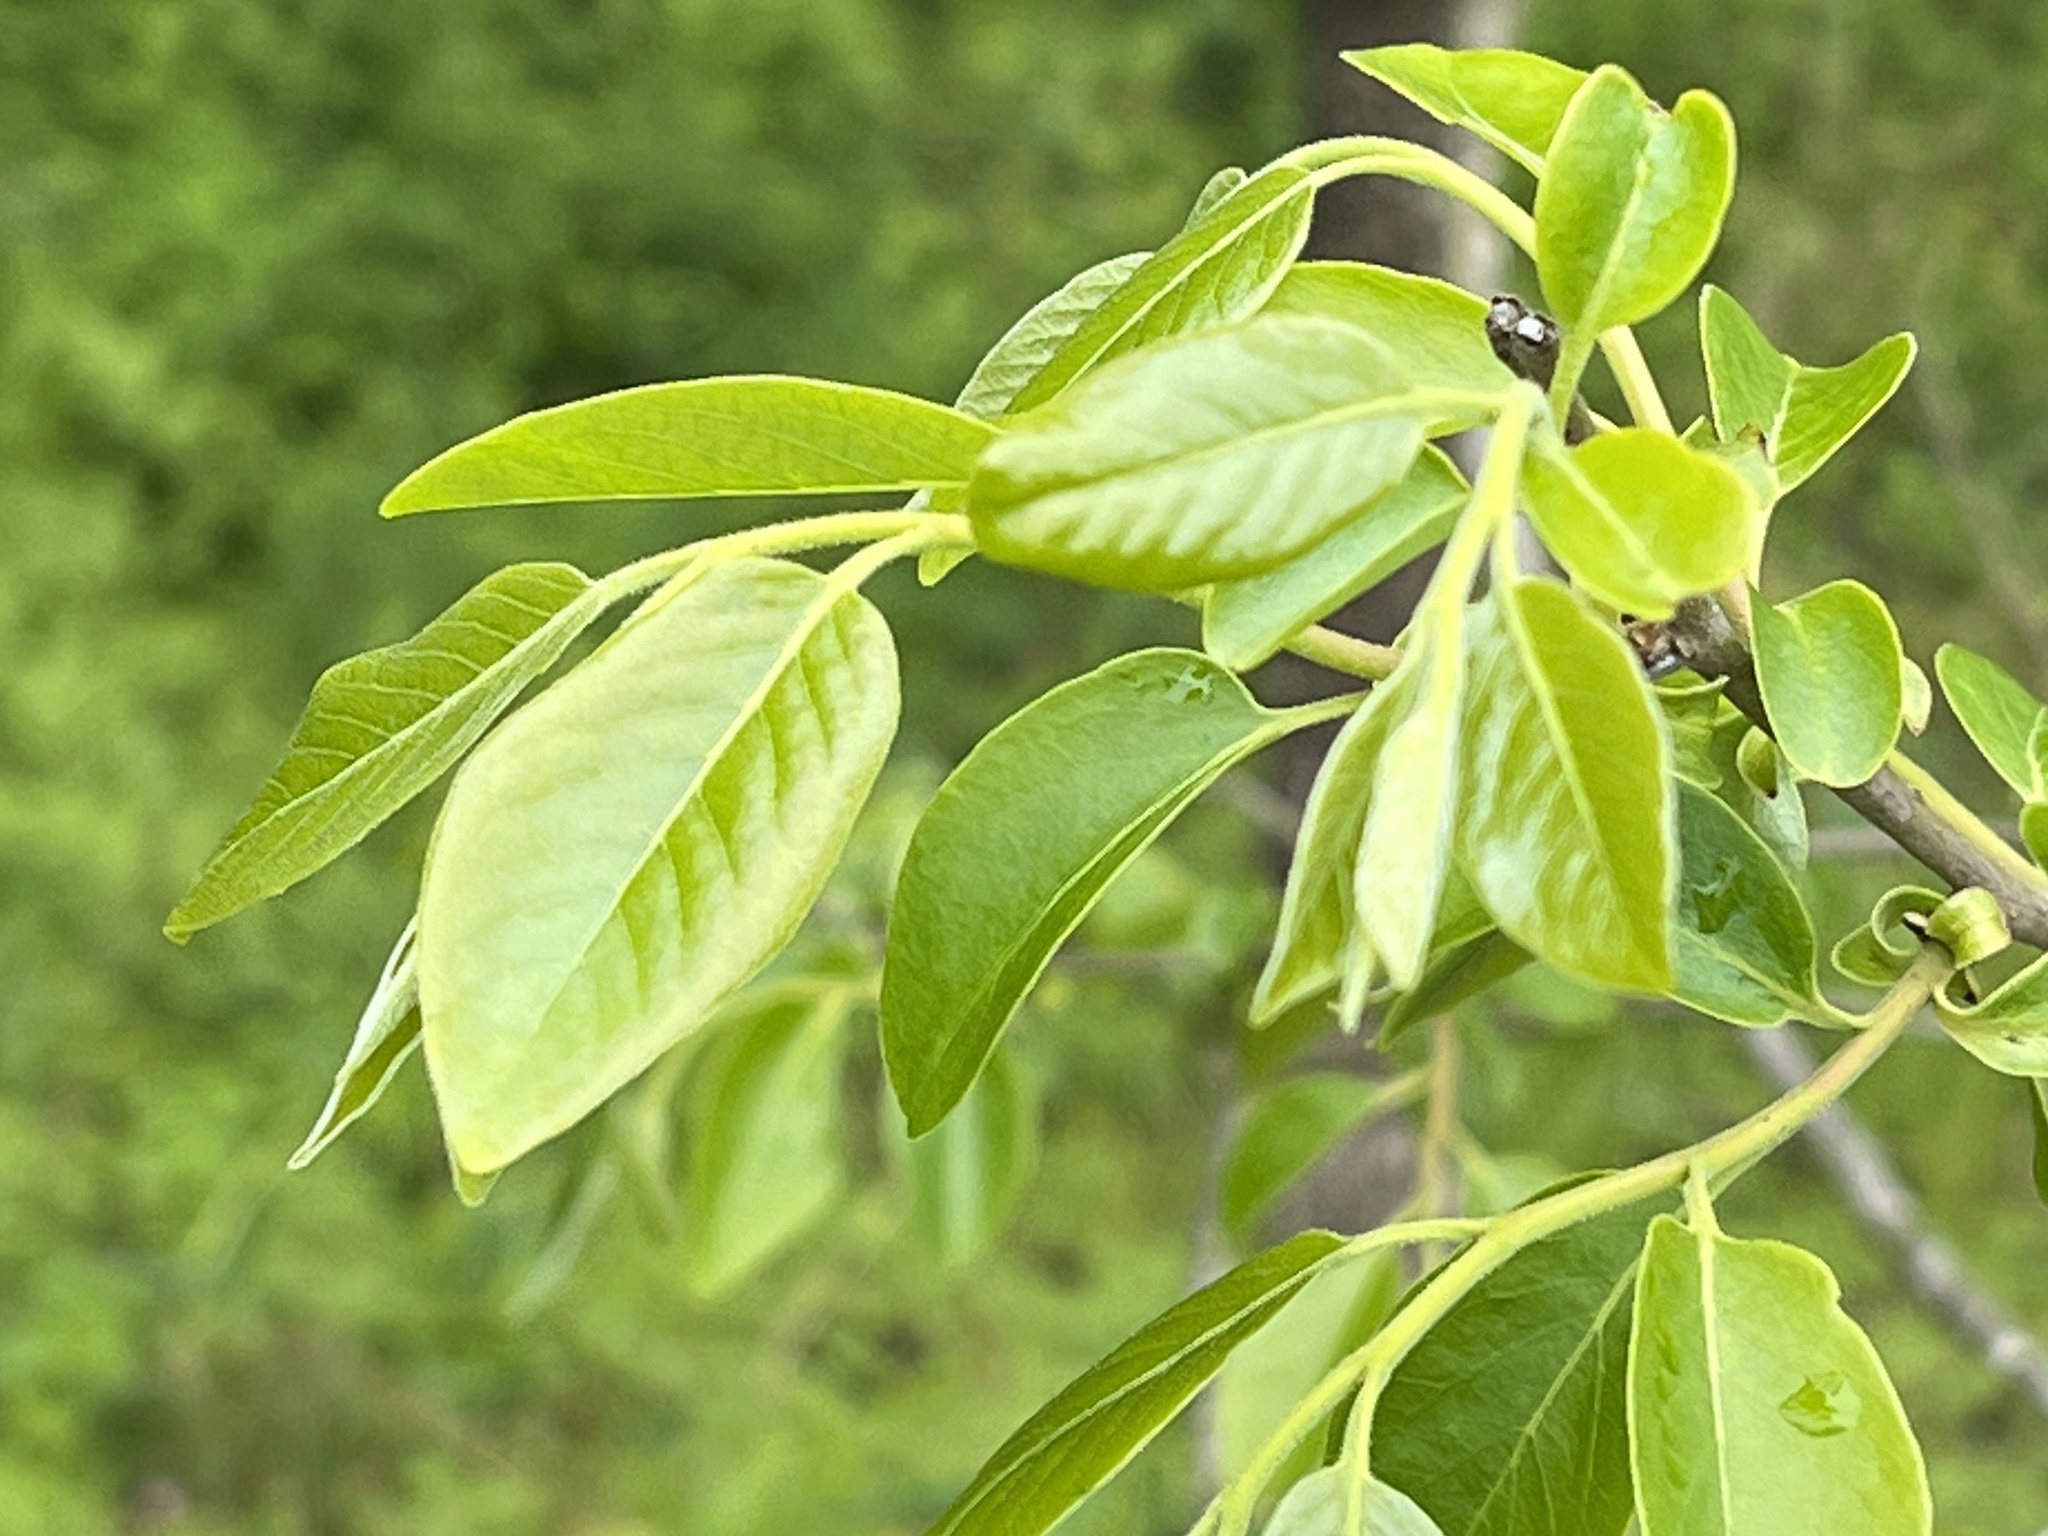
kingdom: Plantae
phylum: Tracheophyta
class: Magnoliopsida
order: Ericales
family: Ebenaceae
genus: Diospyros
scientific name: Diospyros virginiana
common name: Persimmon
